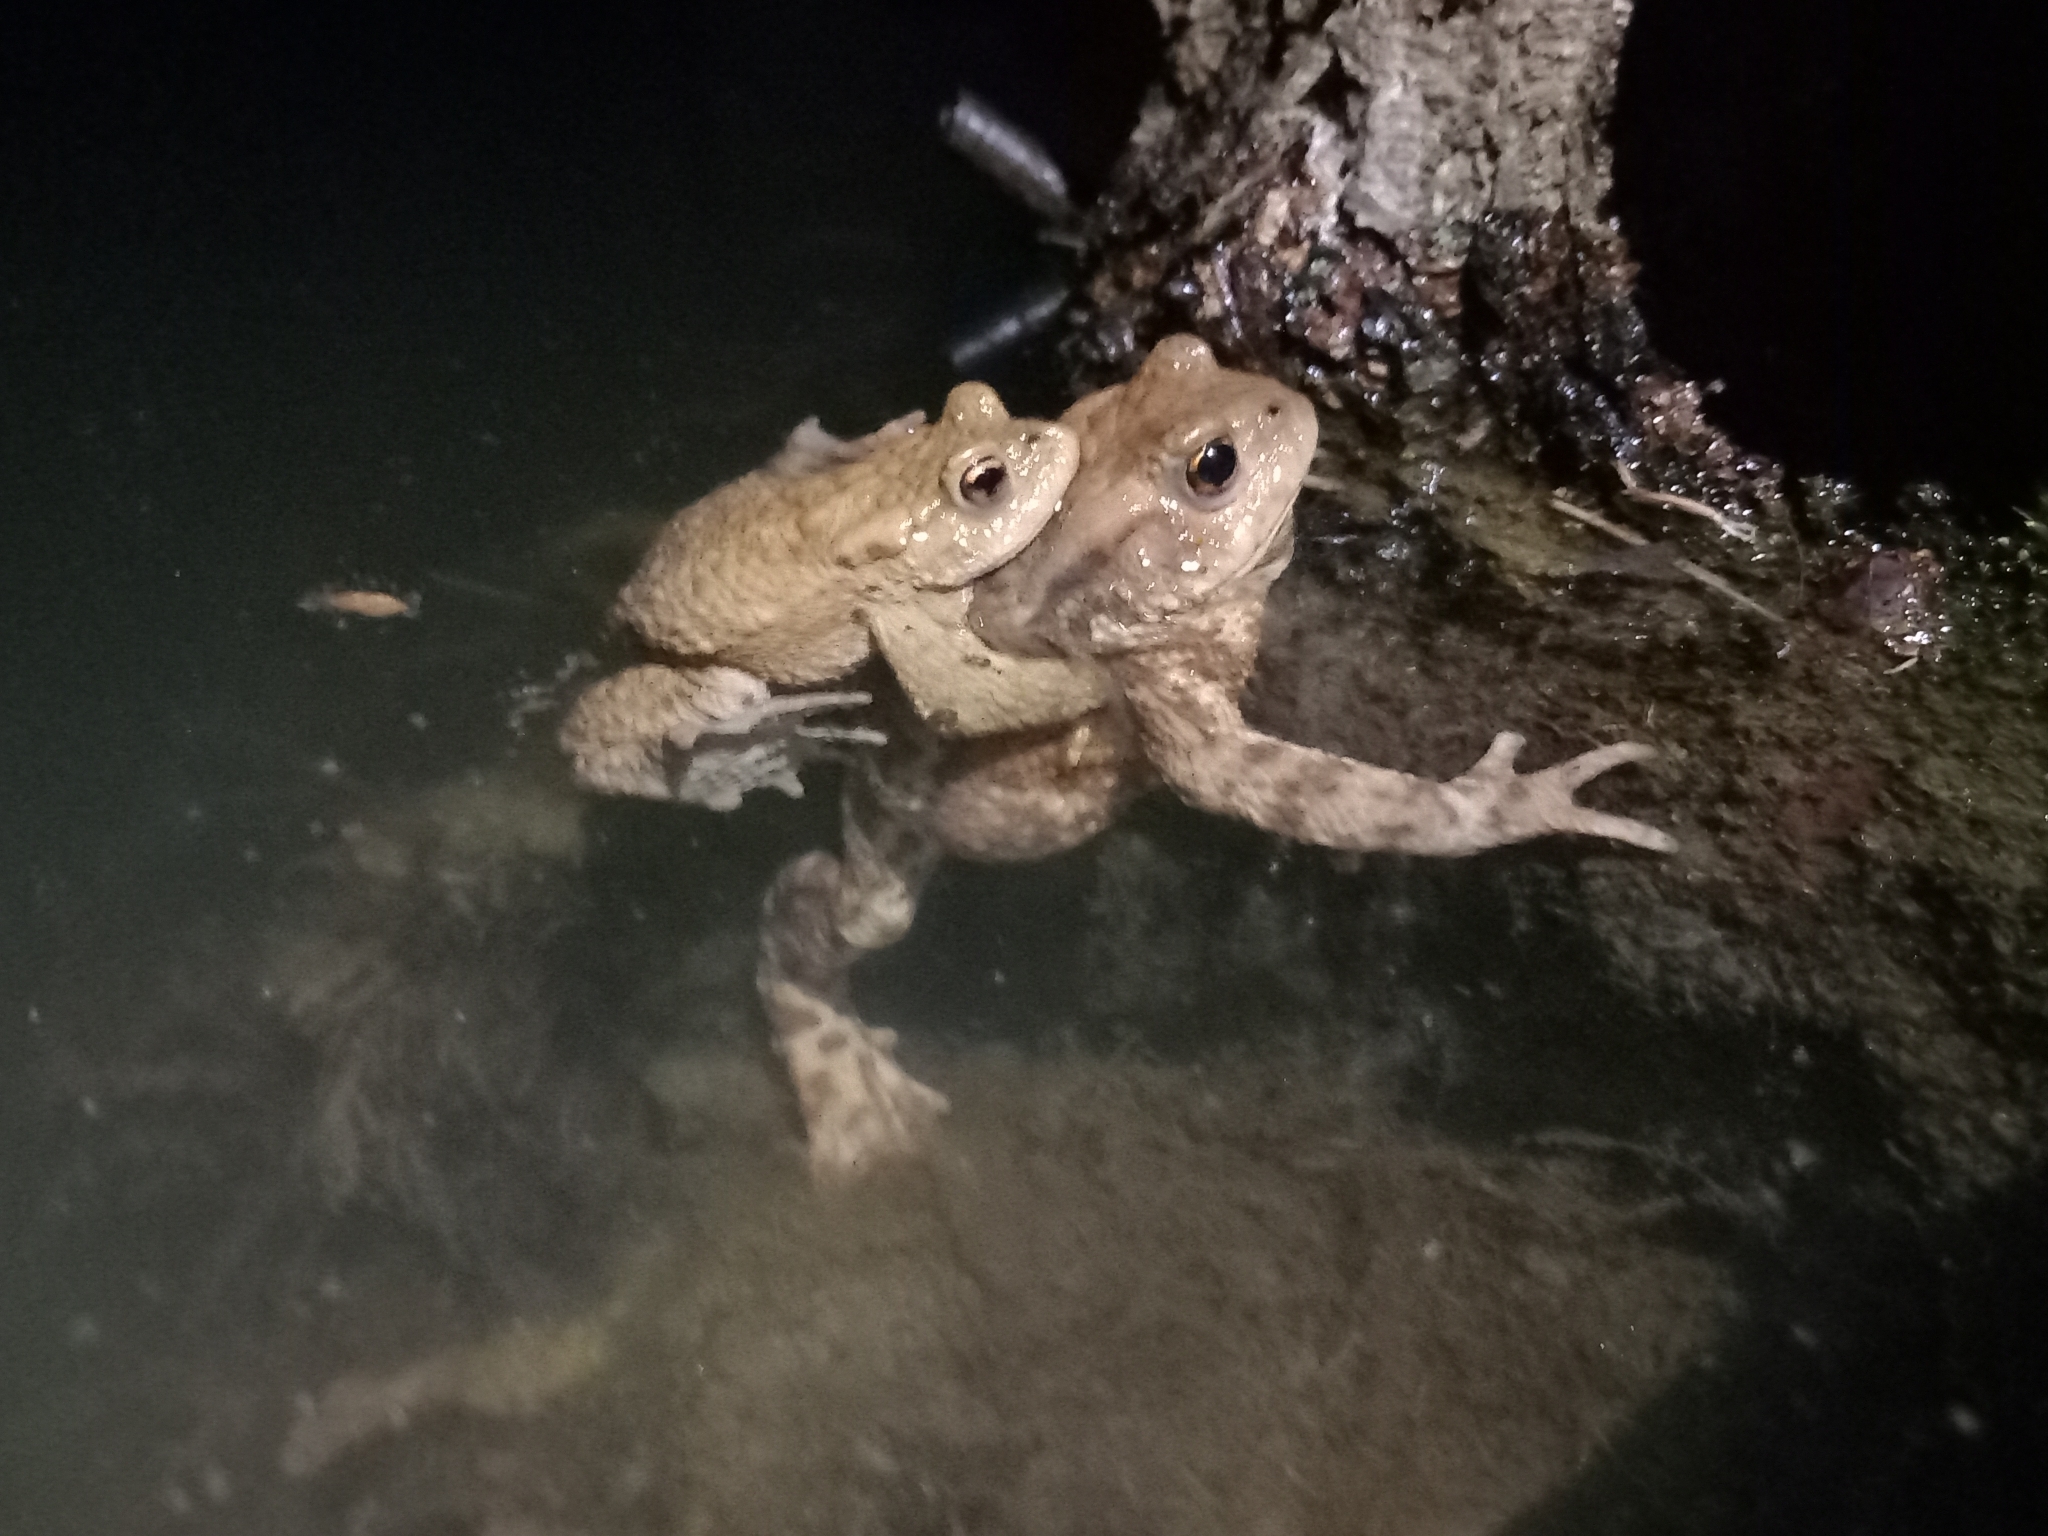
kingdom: Animalia
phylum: Chordata
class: Amphibia
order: Anura
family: Bufonidae
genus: Bufo
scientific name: Bufo bufo
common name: Common toad
